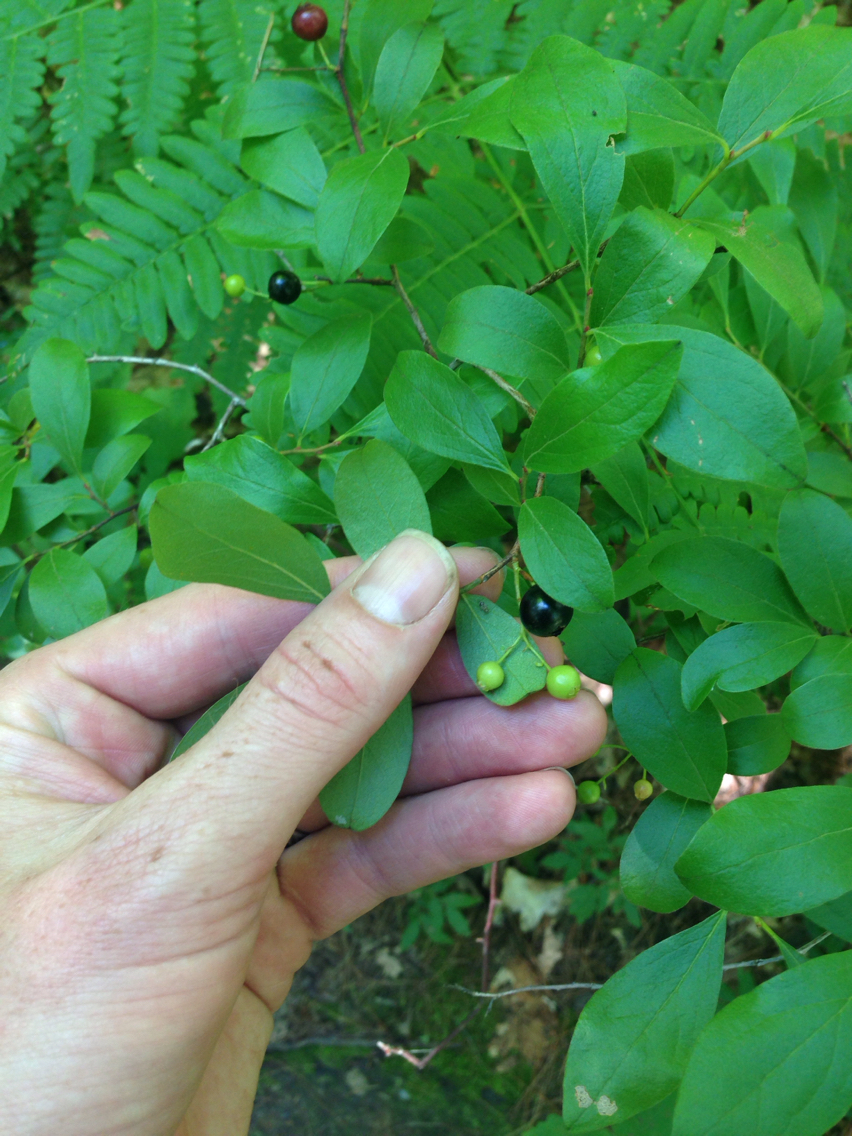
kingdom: Plantae
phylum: Tracheophyta
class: Magnoliopsida
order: Ericales
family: Ericaceae
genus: Gaylussacia
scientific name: Gaylussacia baccata
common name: Black huckleberry
